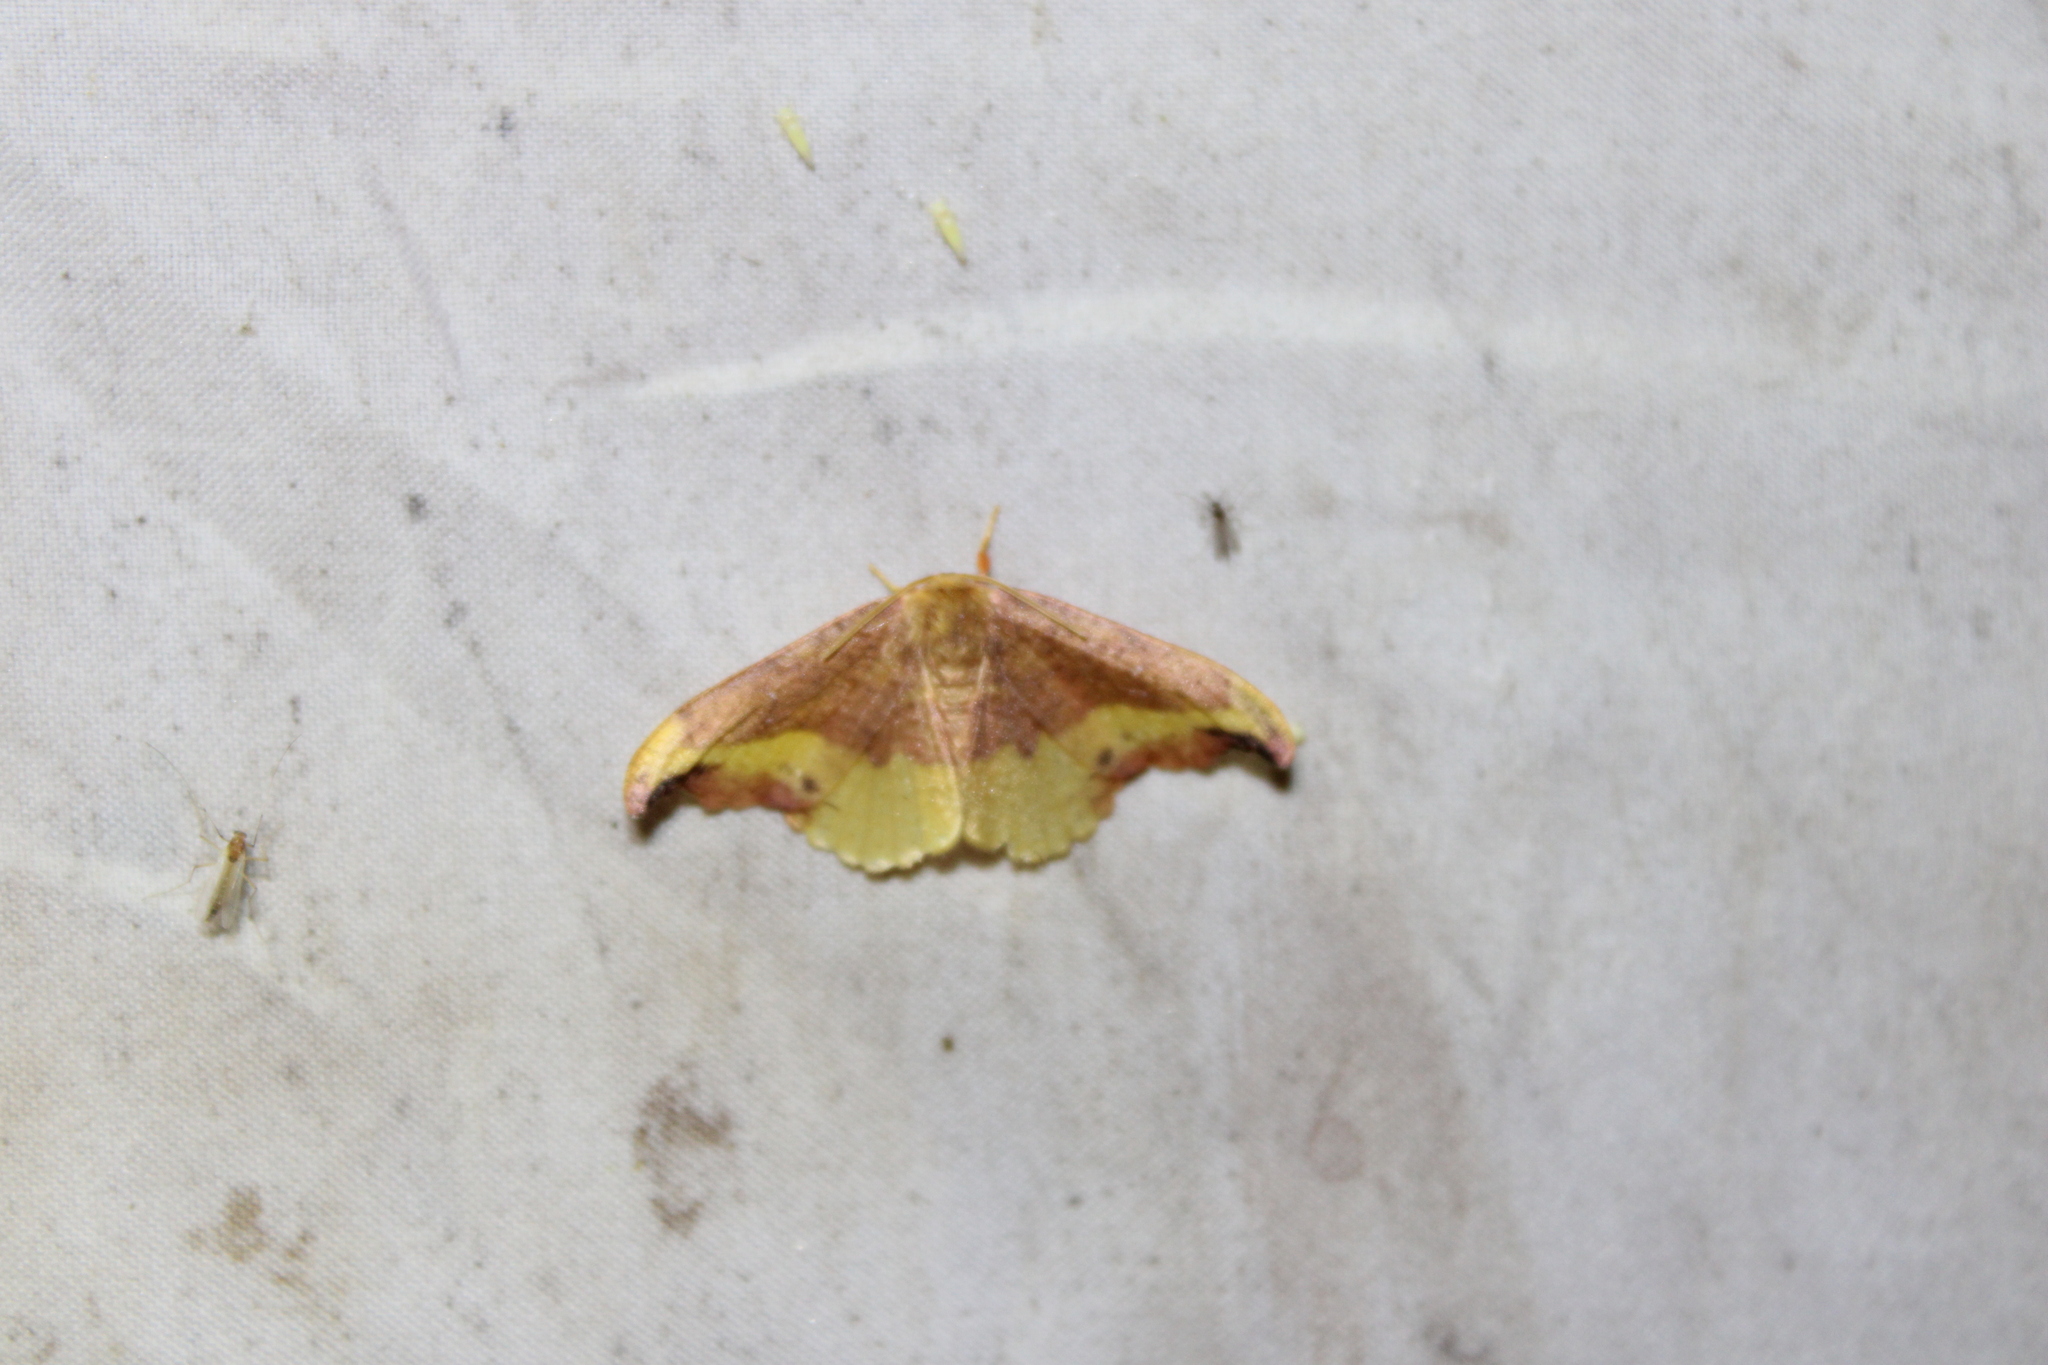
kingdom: Animalia
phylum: Arthropoda
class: Insecta
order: Lepidoptera
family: Drepanidae
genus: Oreta
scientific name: Oreta rosea
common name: Rose hooktip
